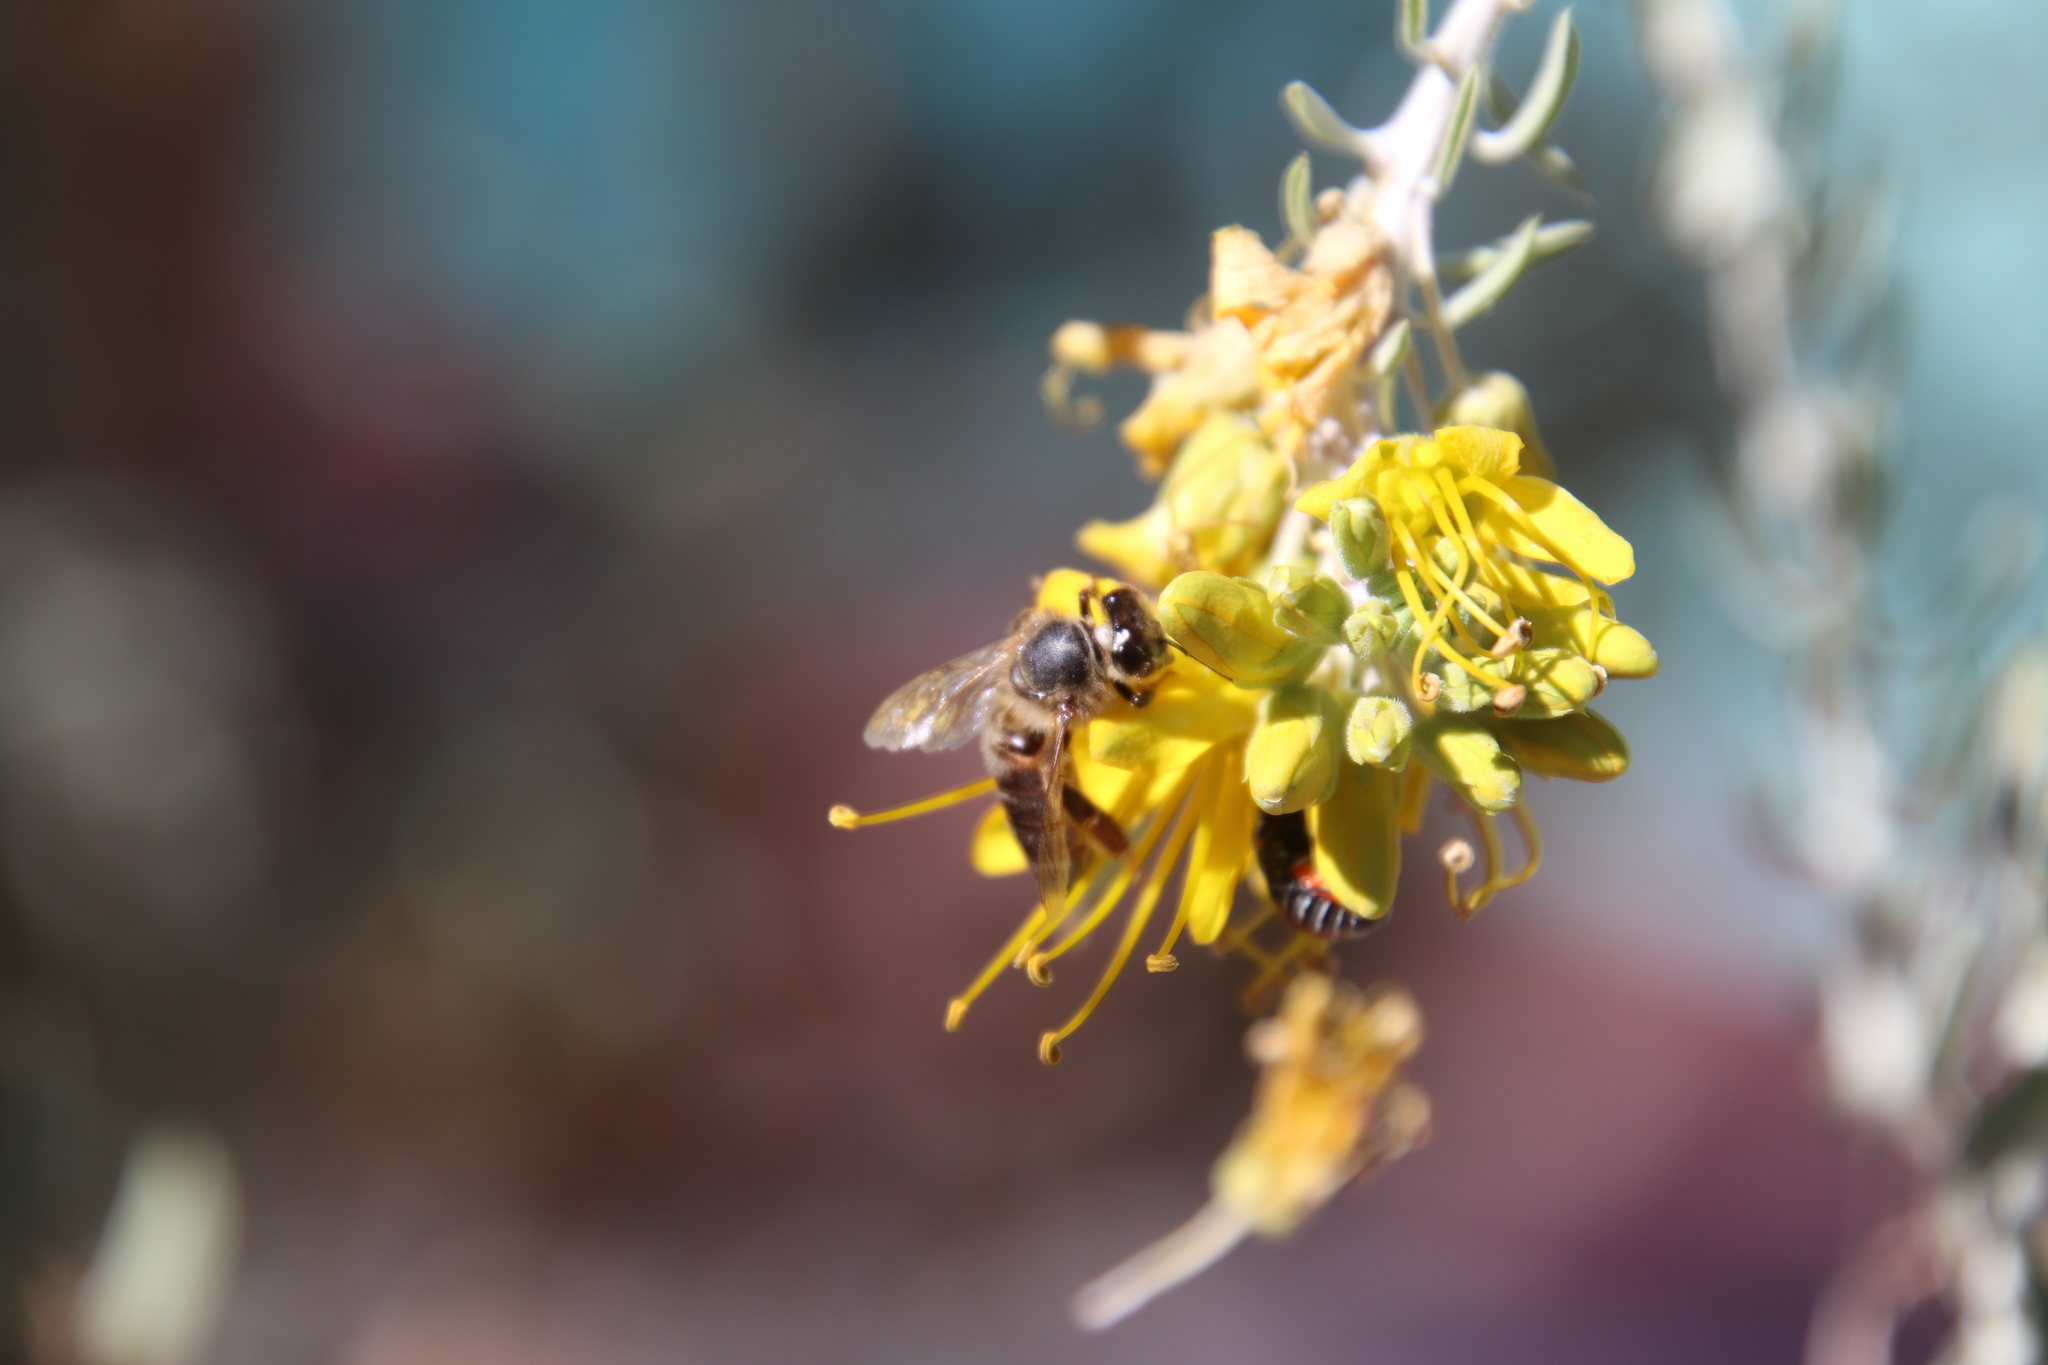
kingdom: Animalia
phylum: Arthropoda
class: Insecta
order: Hymenoptera
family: Apidae
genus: Apis
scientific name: Apis mellifera
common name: Honey bee
